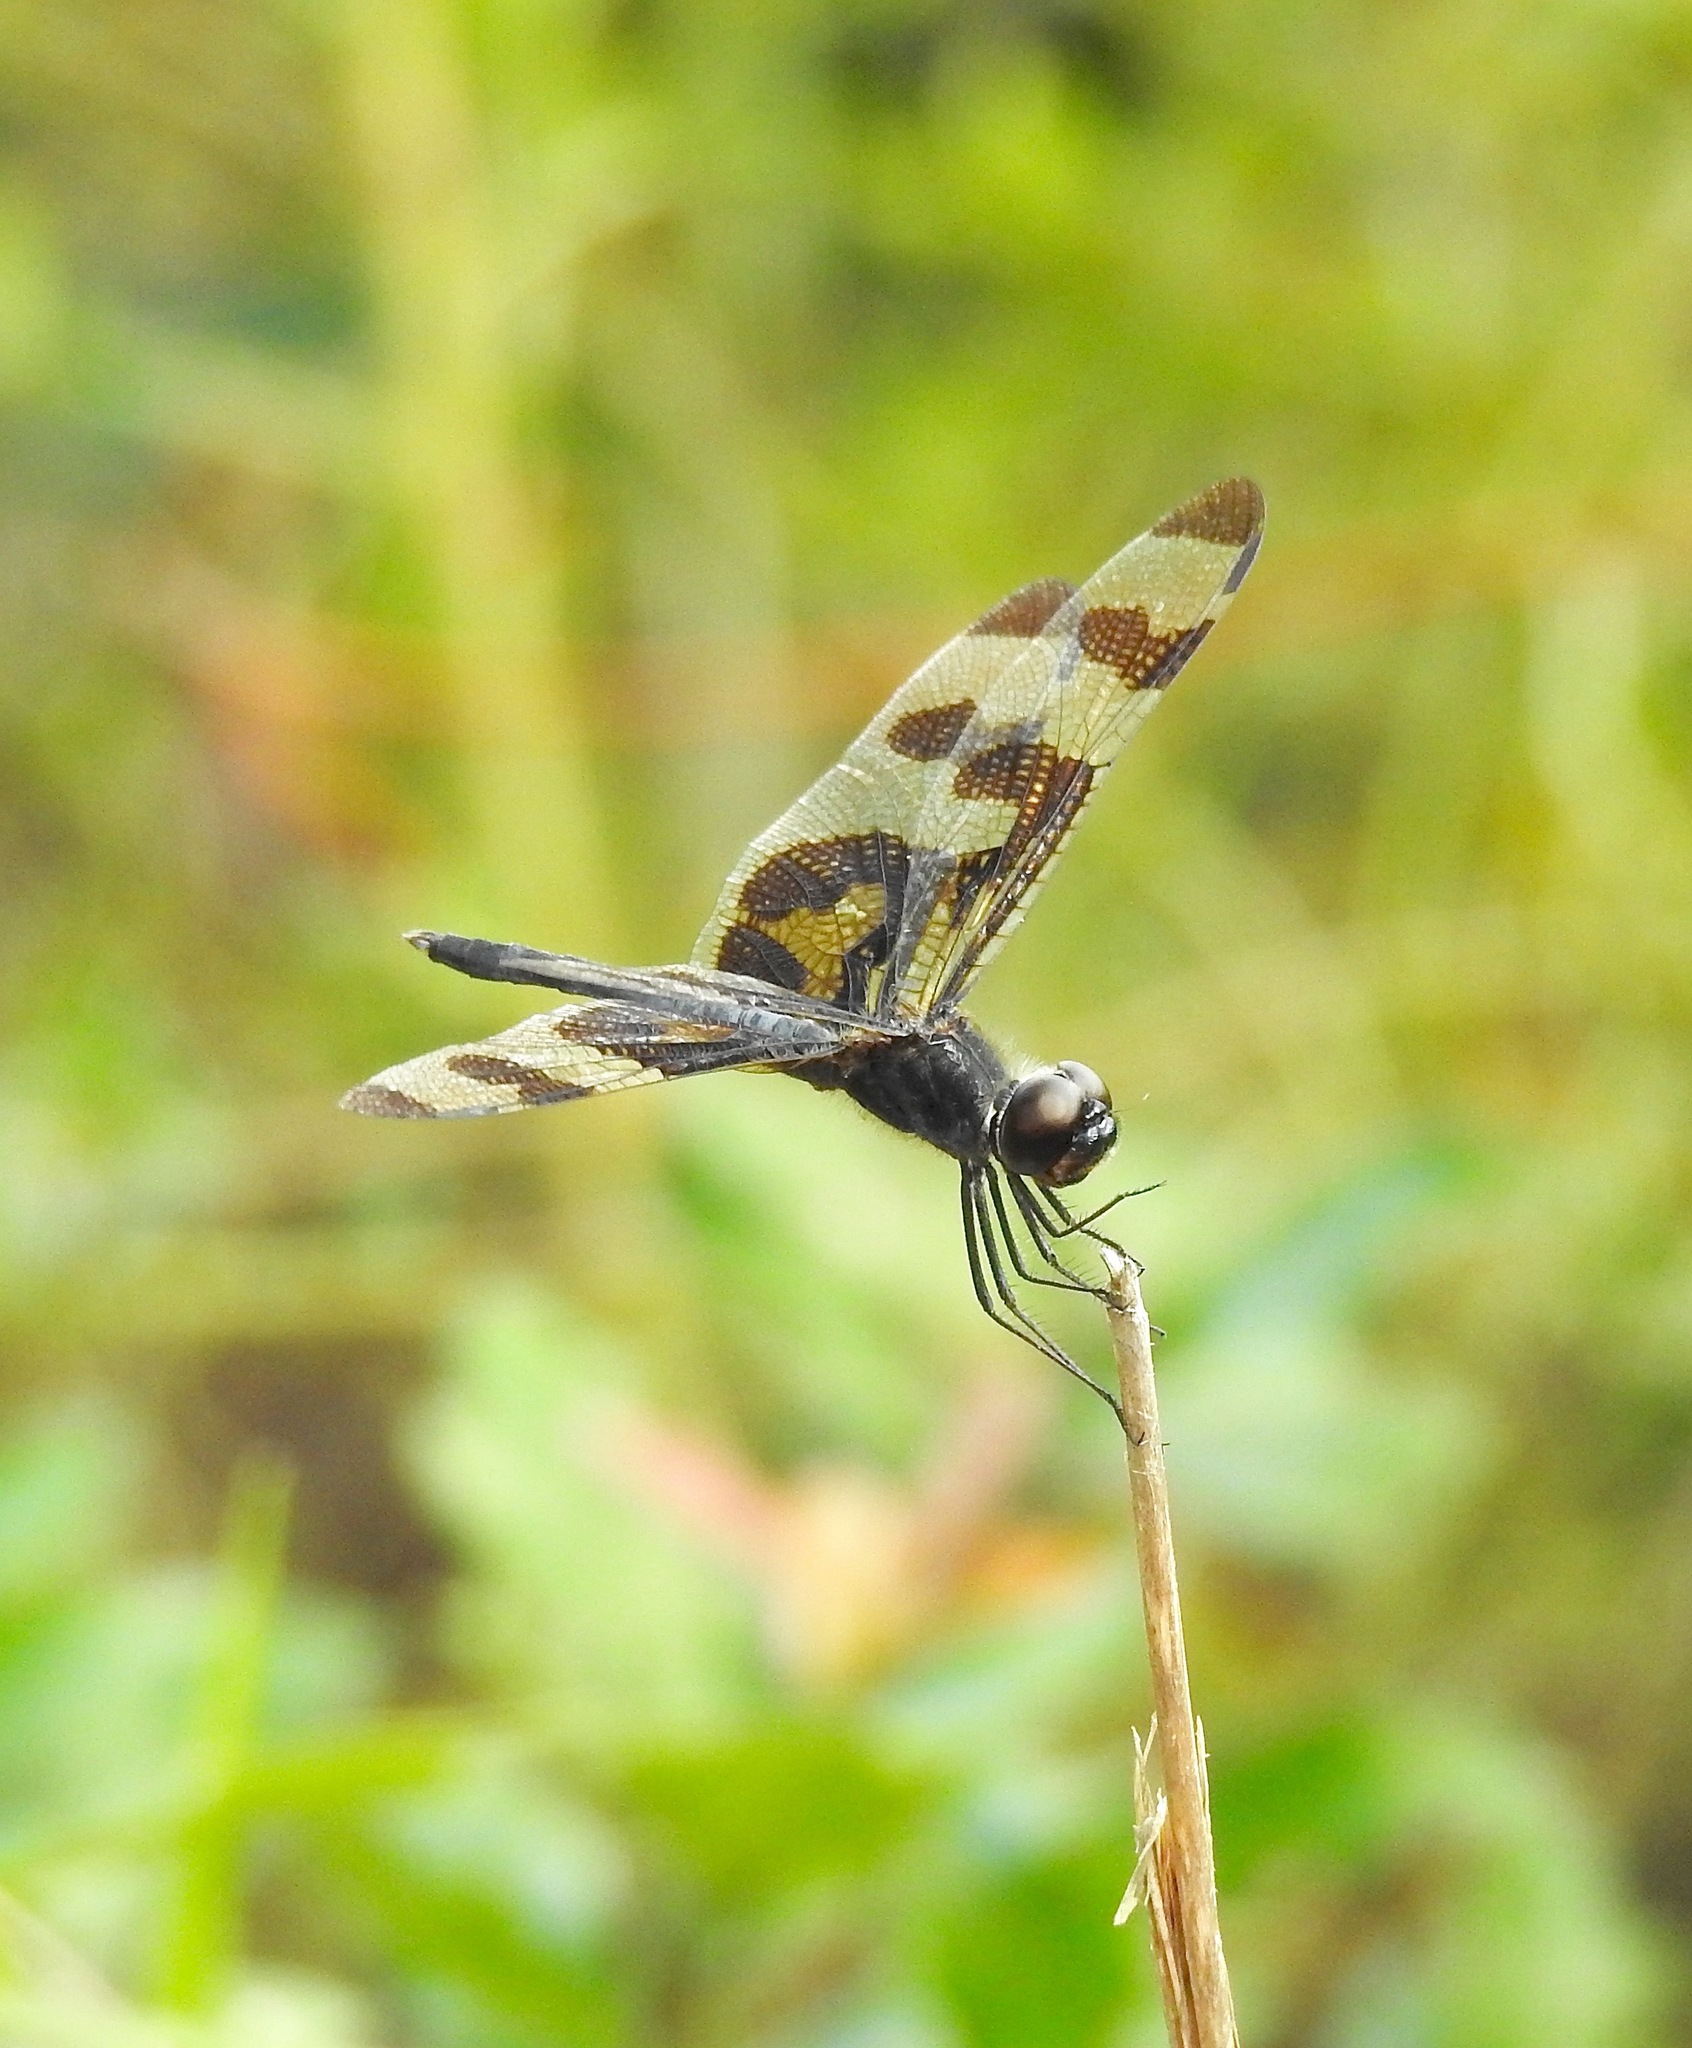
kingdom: Animalia
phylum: Arthropoda
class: Insecta
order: Odonata
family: Libellulidae
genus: Celithemis
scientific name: Celithemis fasciata
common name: Banded pennant
